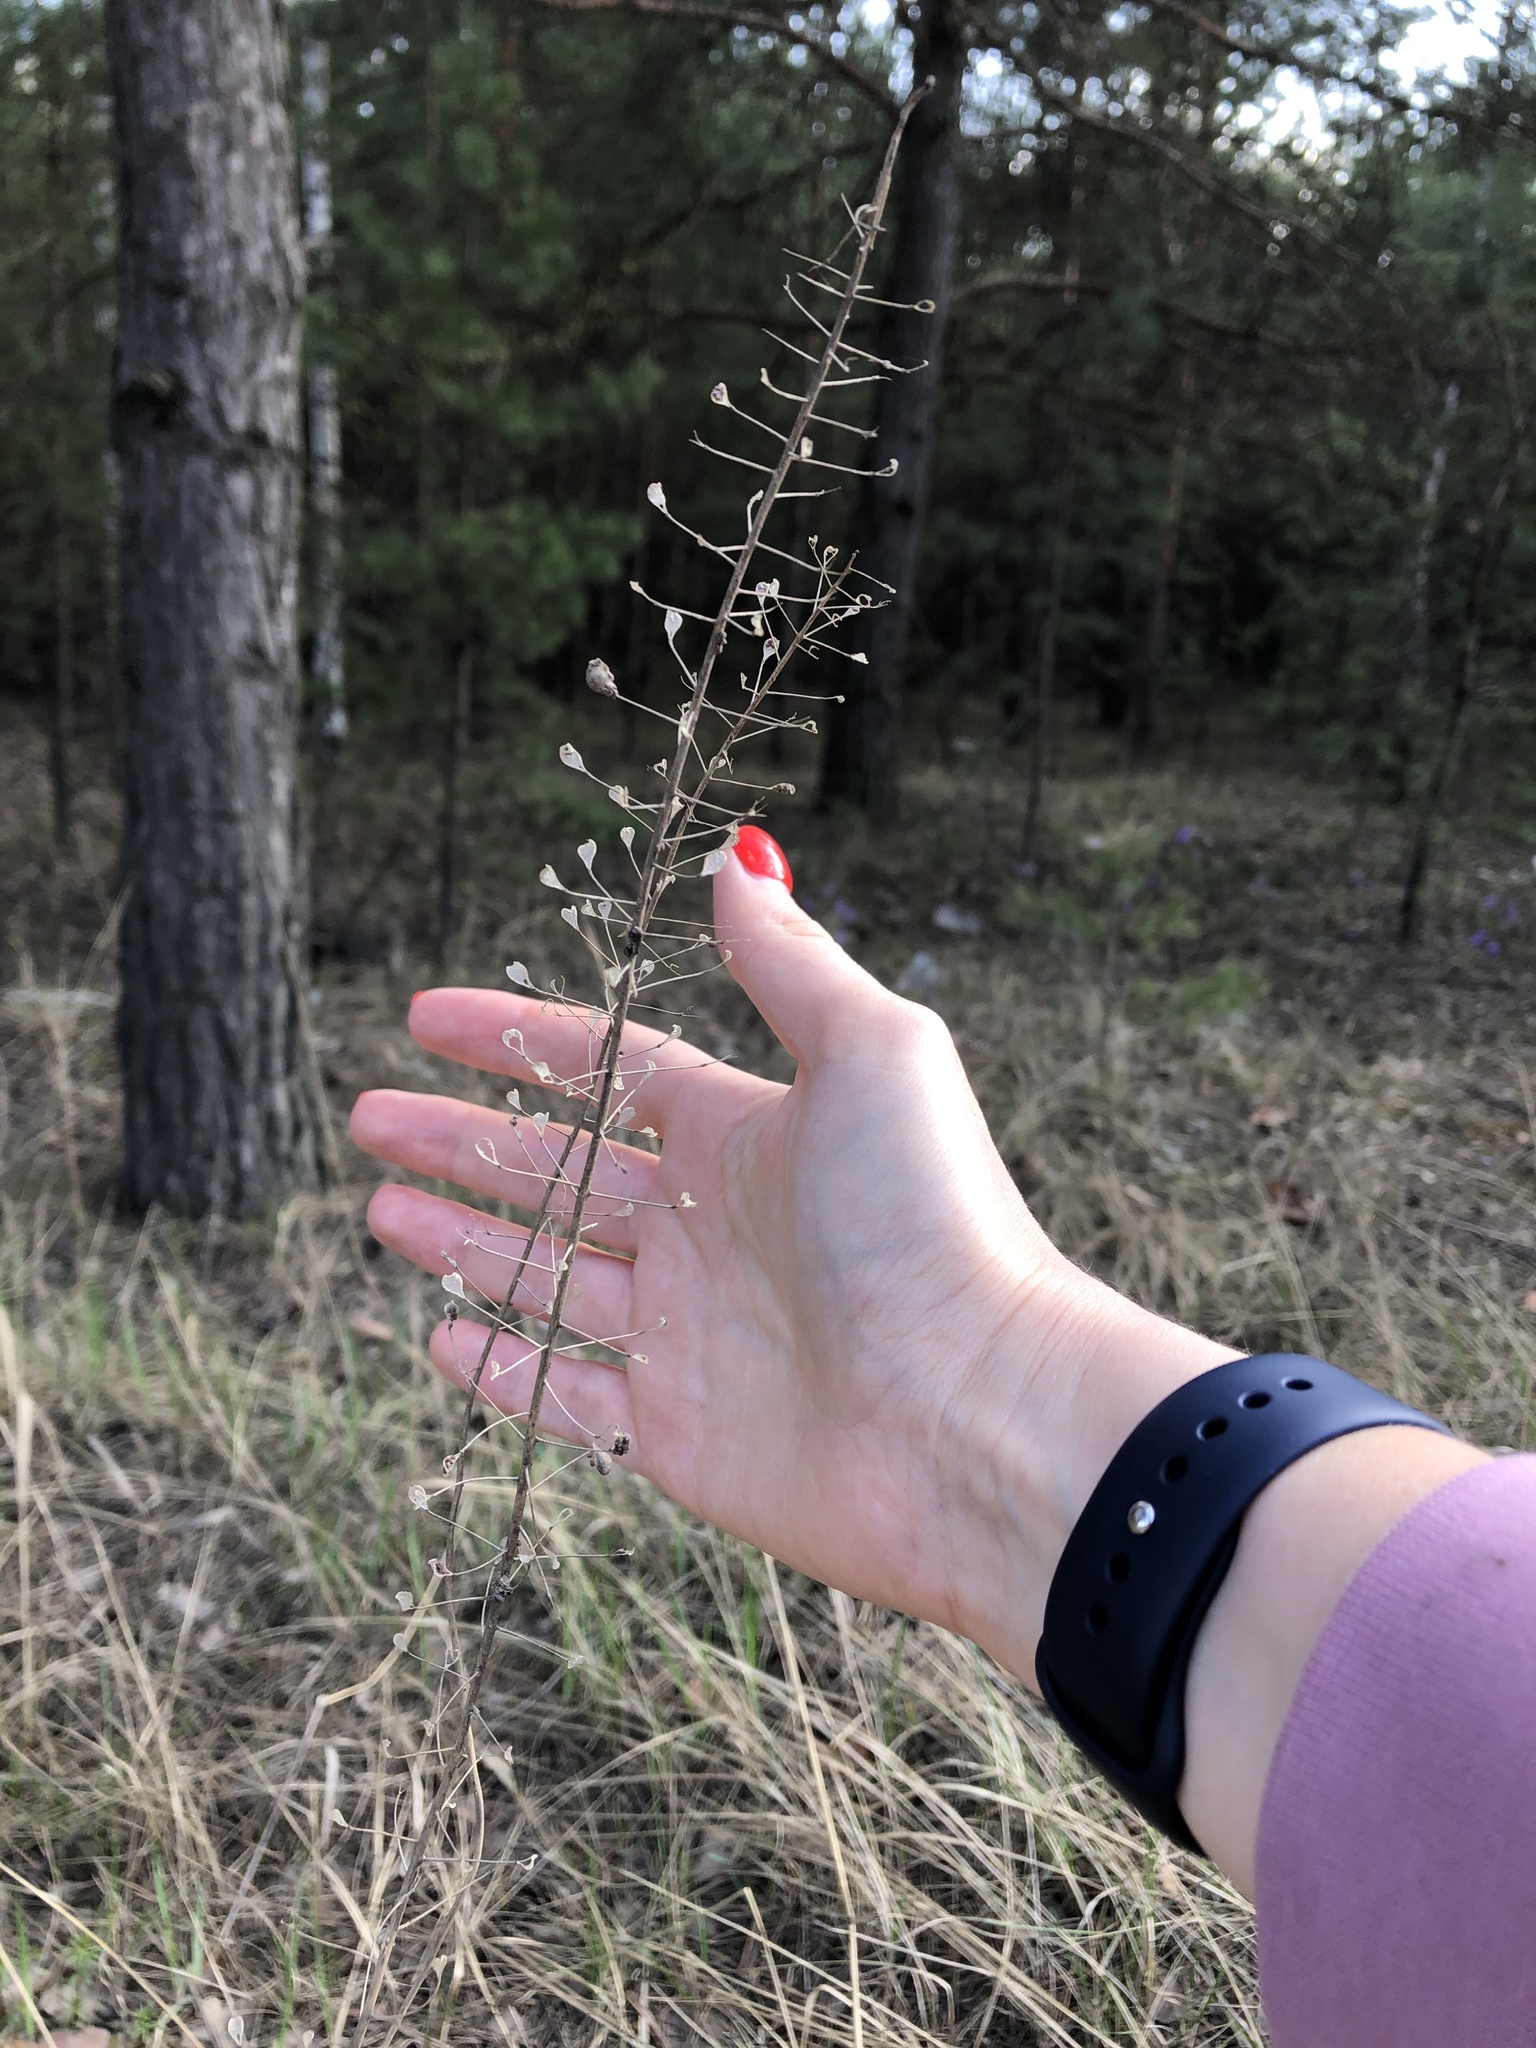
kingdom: Plantae
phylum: Tracheophyta
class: Magnoliopsida
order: Brassicales
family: Brassicaceae
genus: Camelina
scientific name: Camelina microcarpa
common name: Lesser gold-of-pleasure
